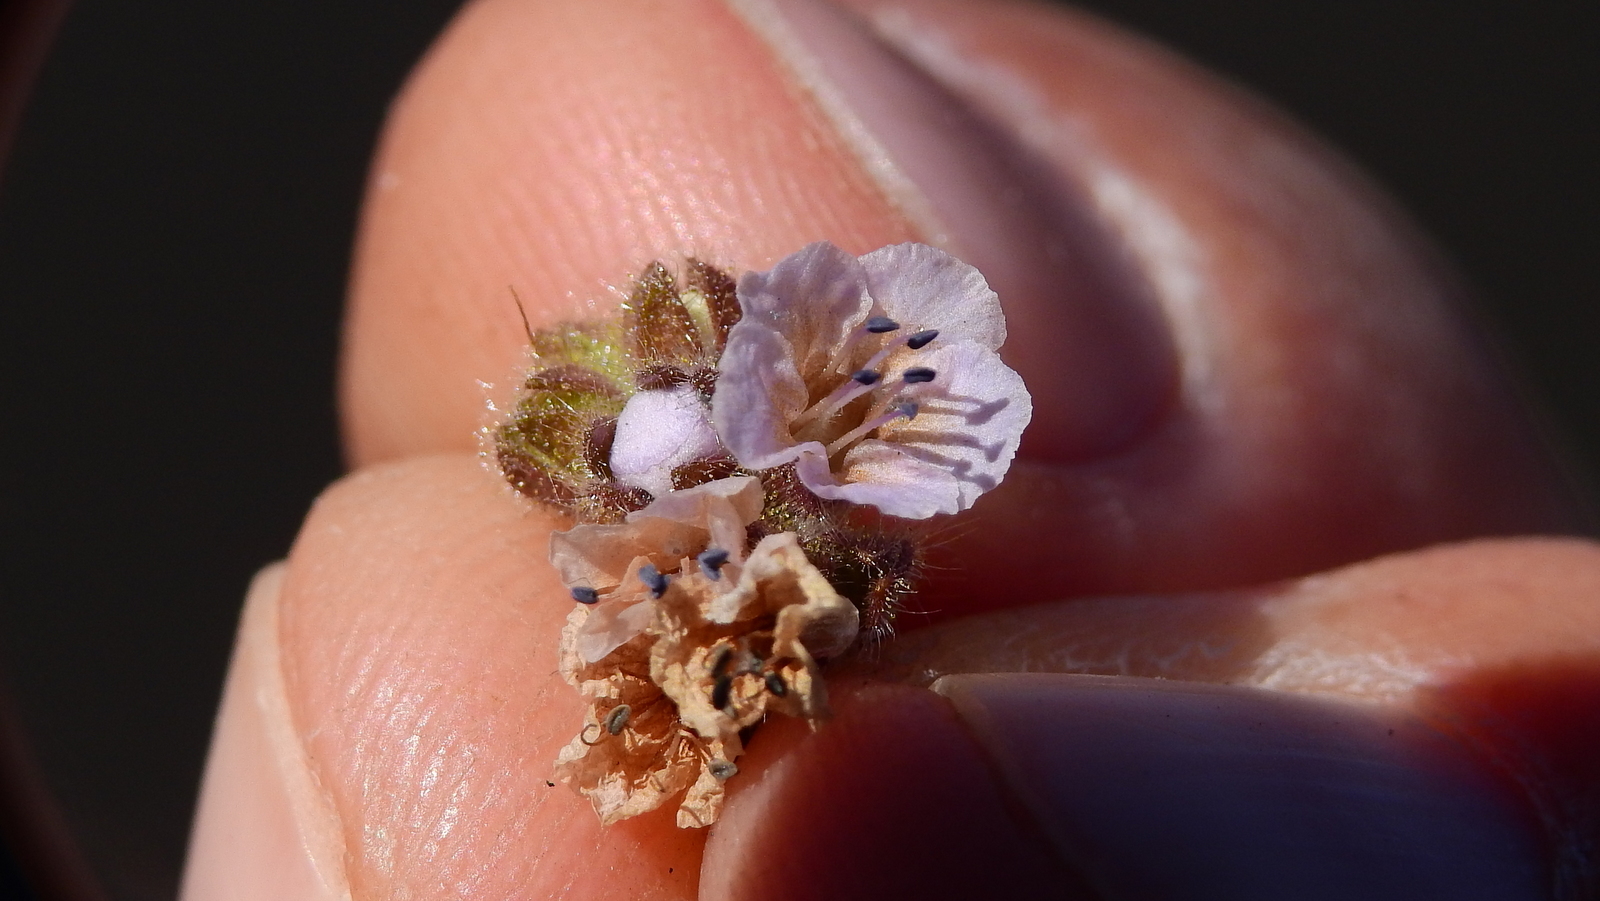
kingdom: Plantae
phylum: Tracheophyta
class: Magnoliopsida
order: Boraginales
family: Hydrophyllaceae
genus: Phacelia
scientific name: Phacelia sanzinii
